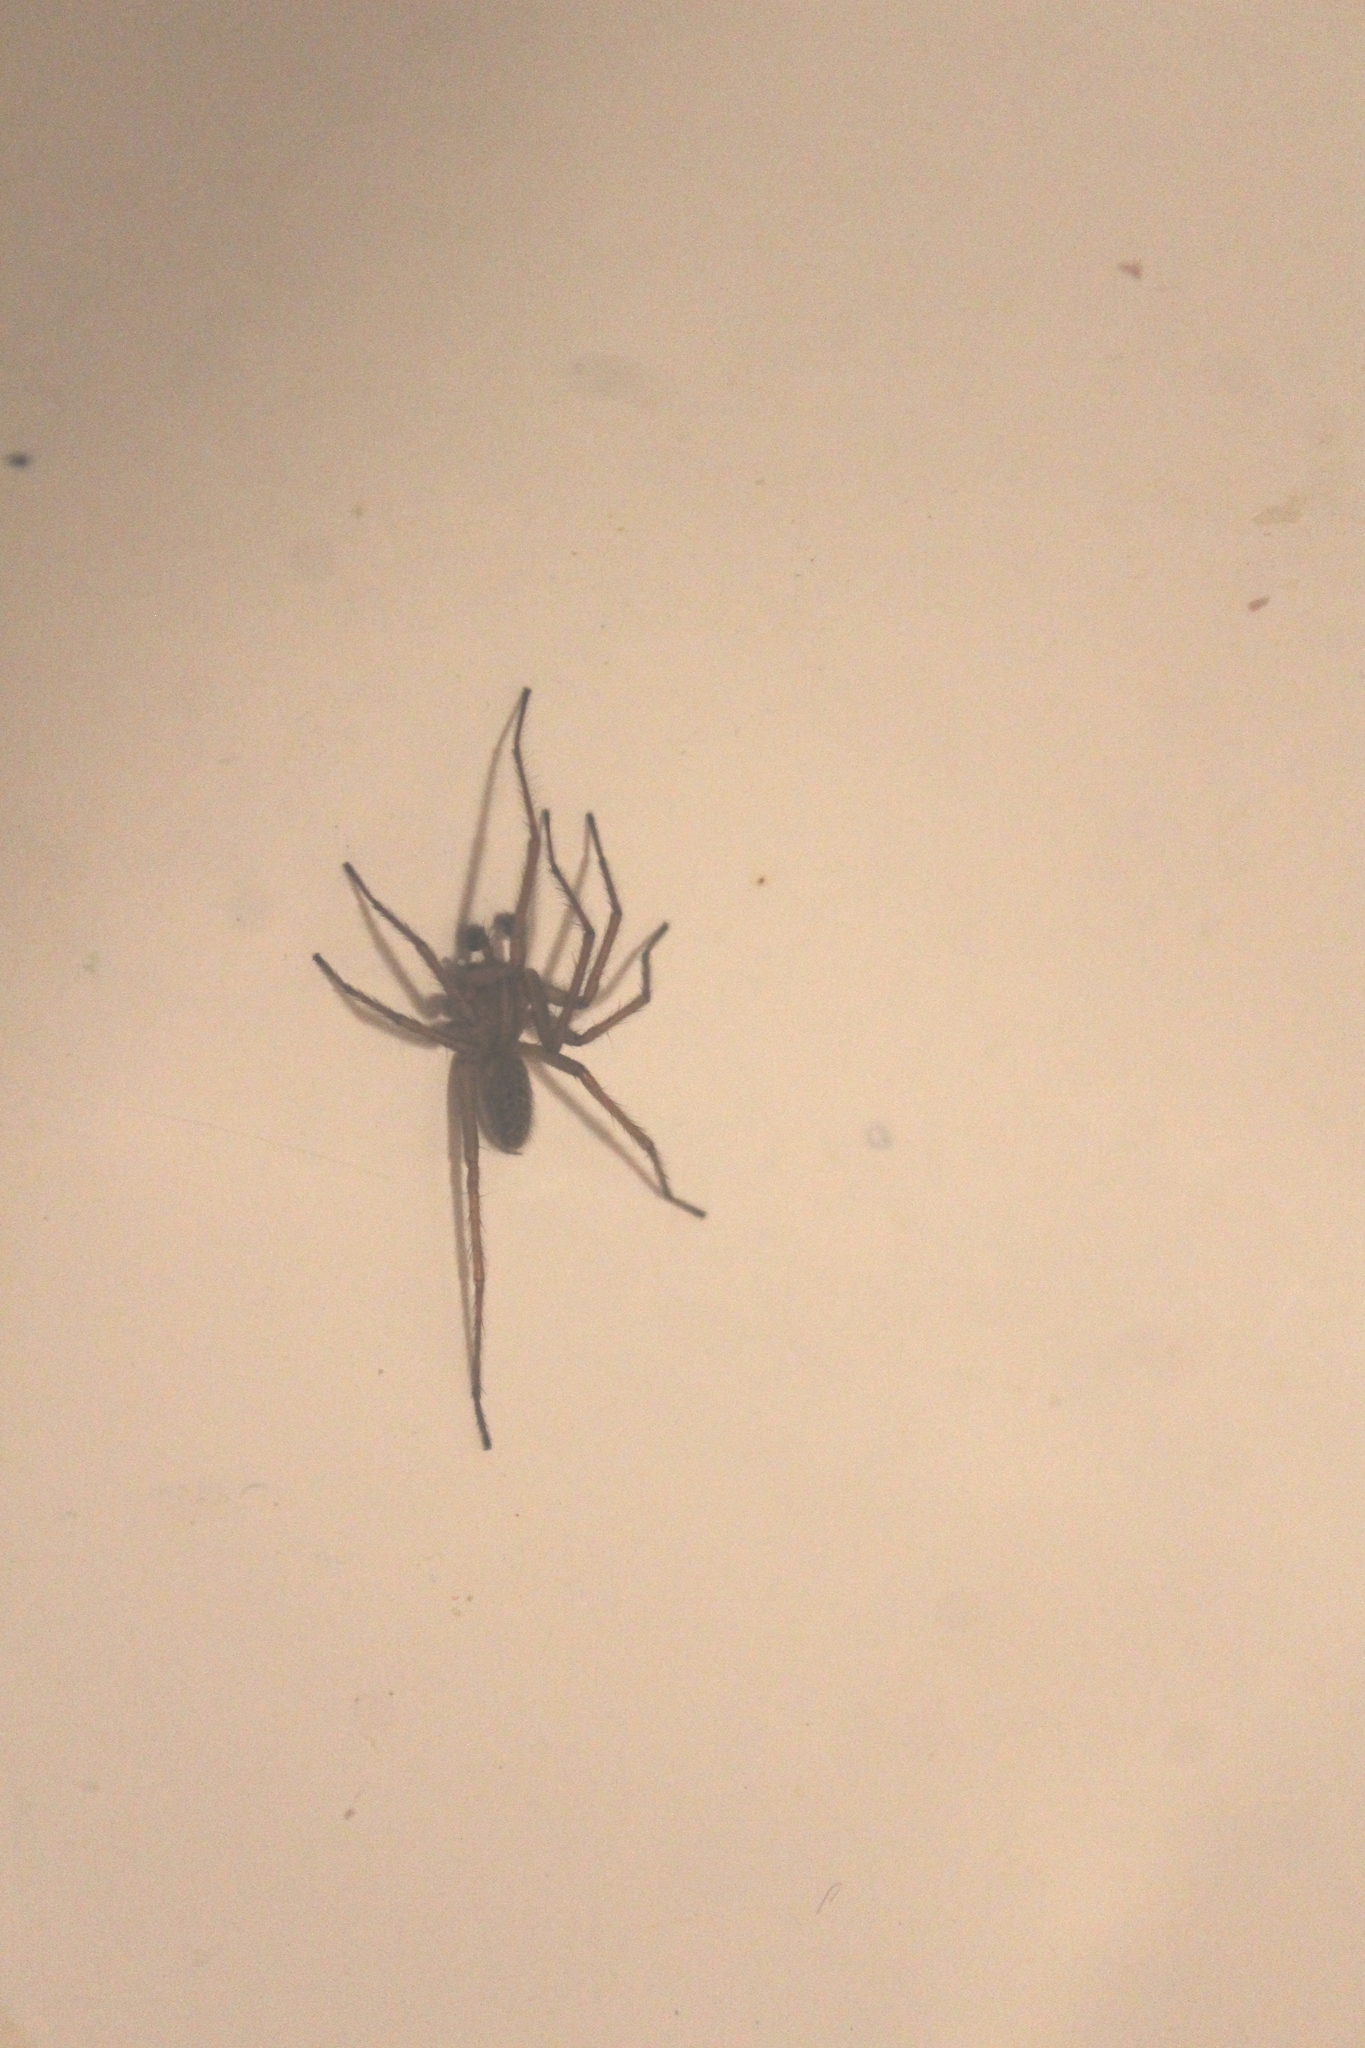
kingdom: Animalia
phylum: Arthropoda
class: Arachnida
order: Araneae
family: Agelenidae
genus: Eratigena
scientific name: Eratigena agrestis
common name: Hobo spider
